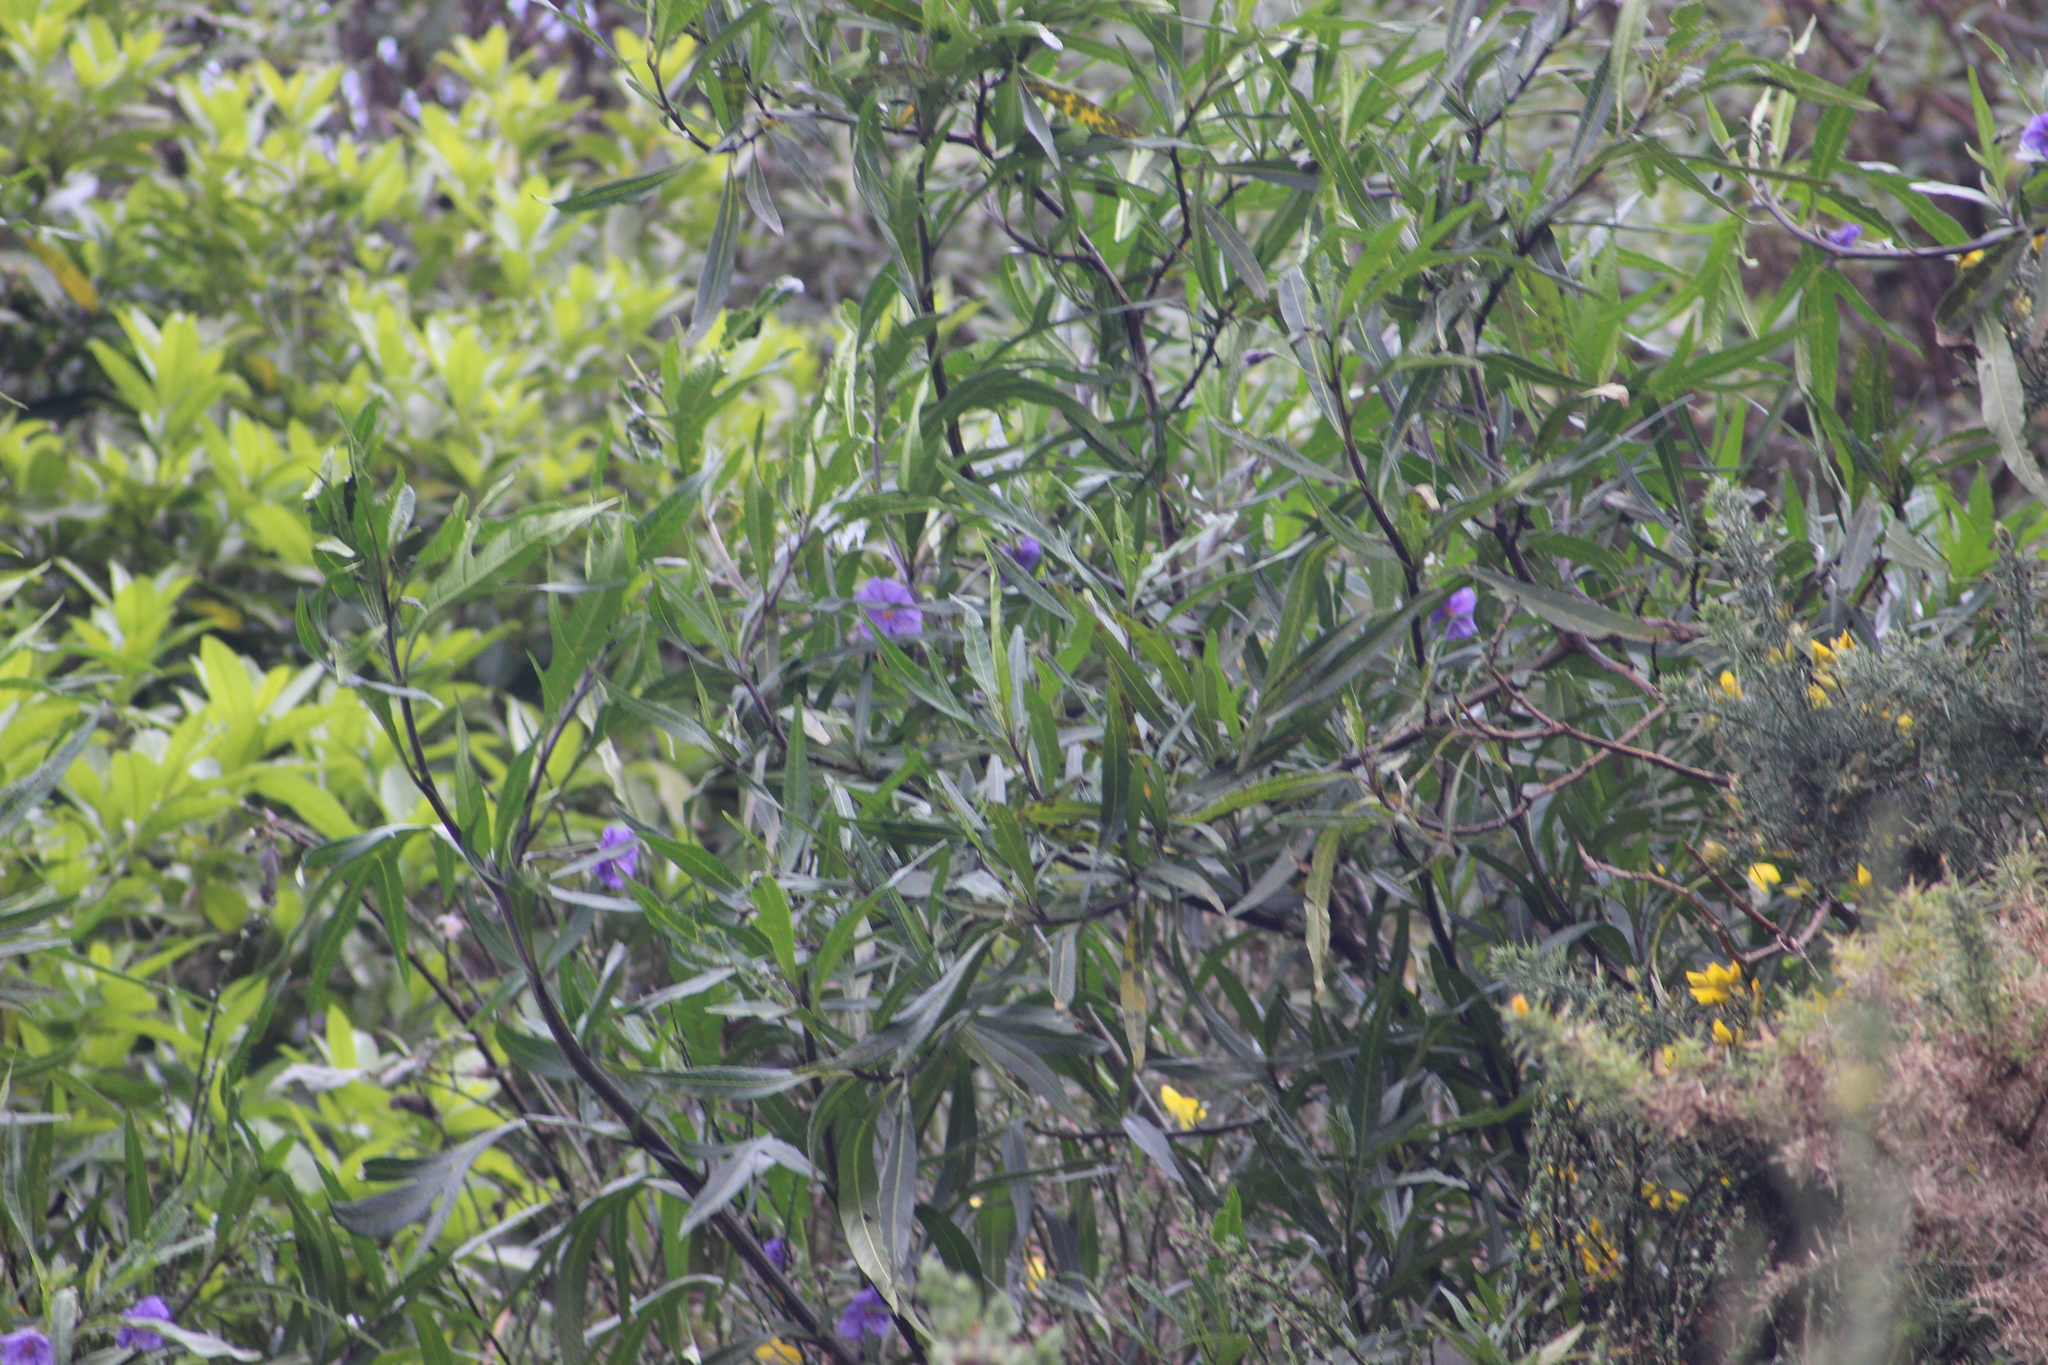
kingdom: Plantae
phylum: Tracheophyta
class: Magnoliopsida
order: Solanales
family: Solanaceae
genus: Solanum
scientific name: Solanum laciniatum
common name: Kangaroo-apple
